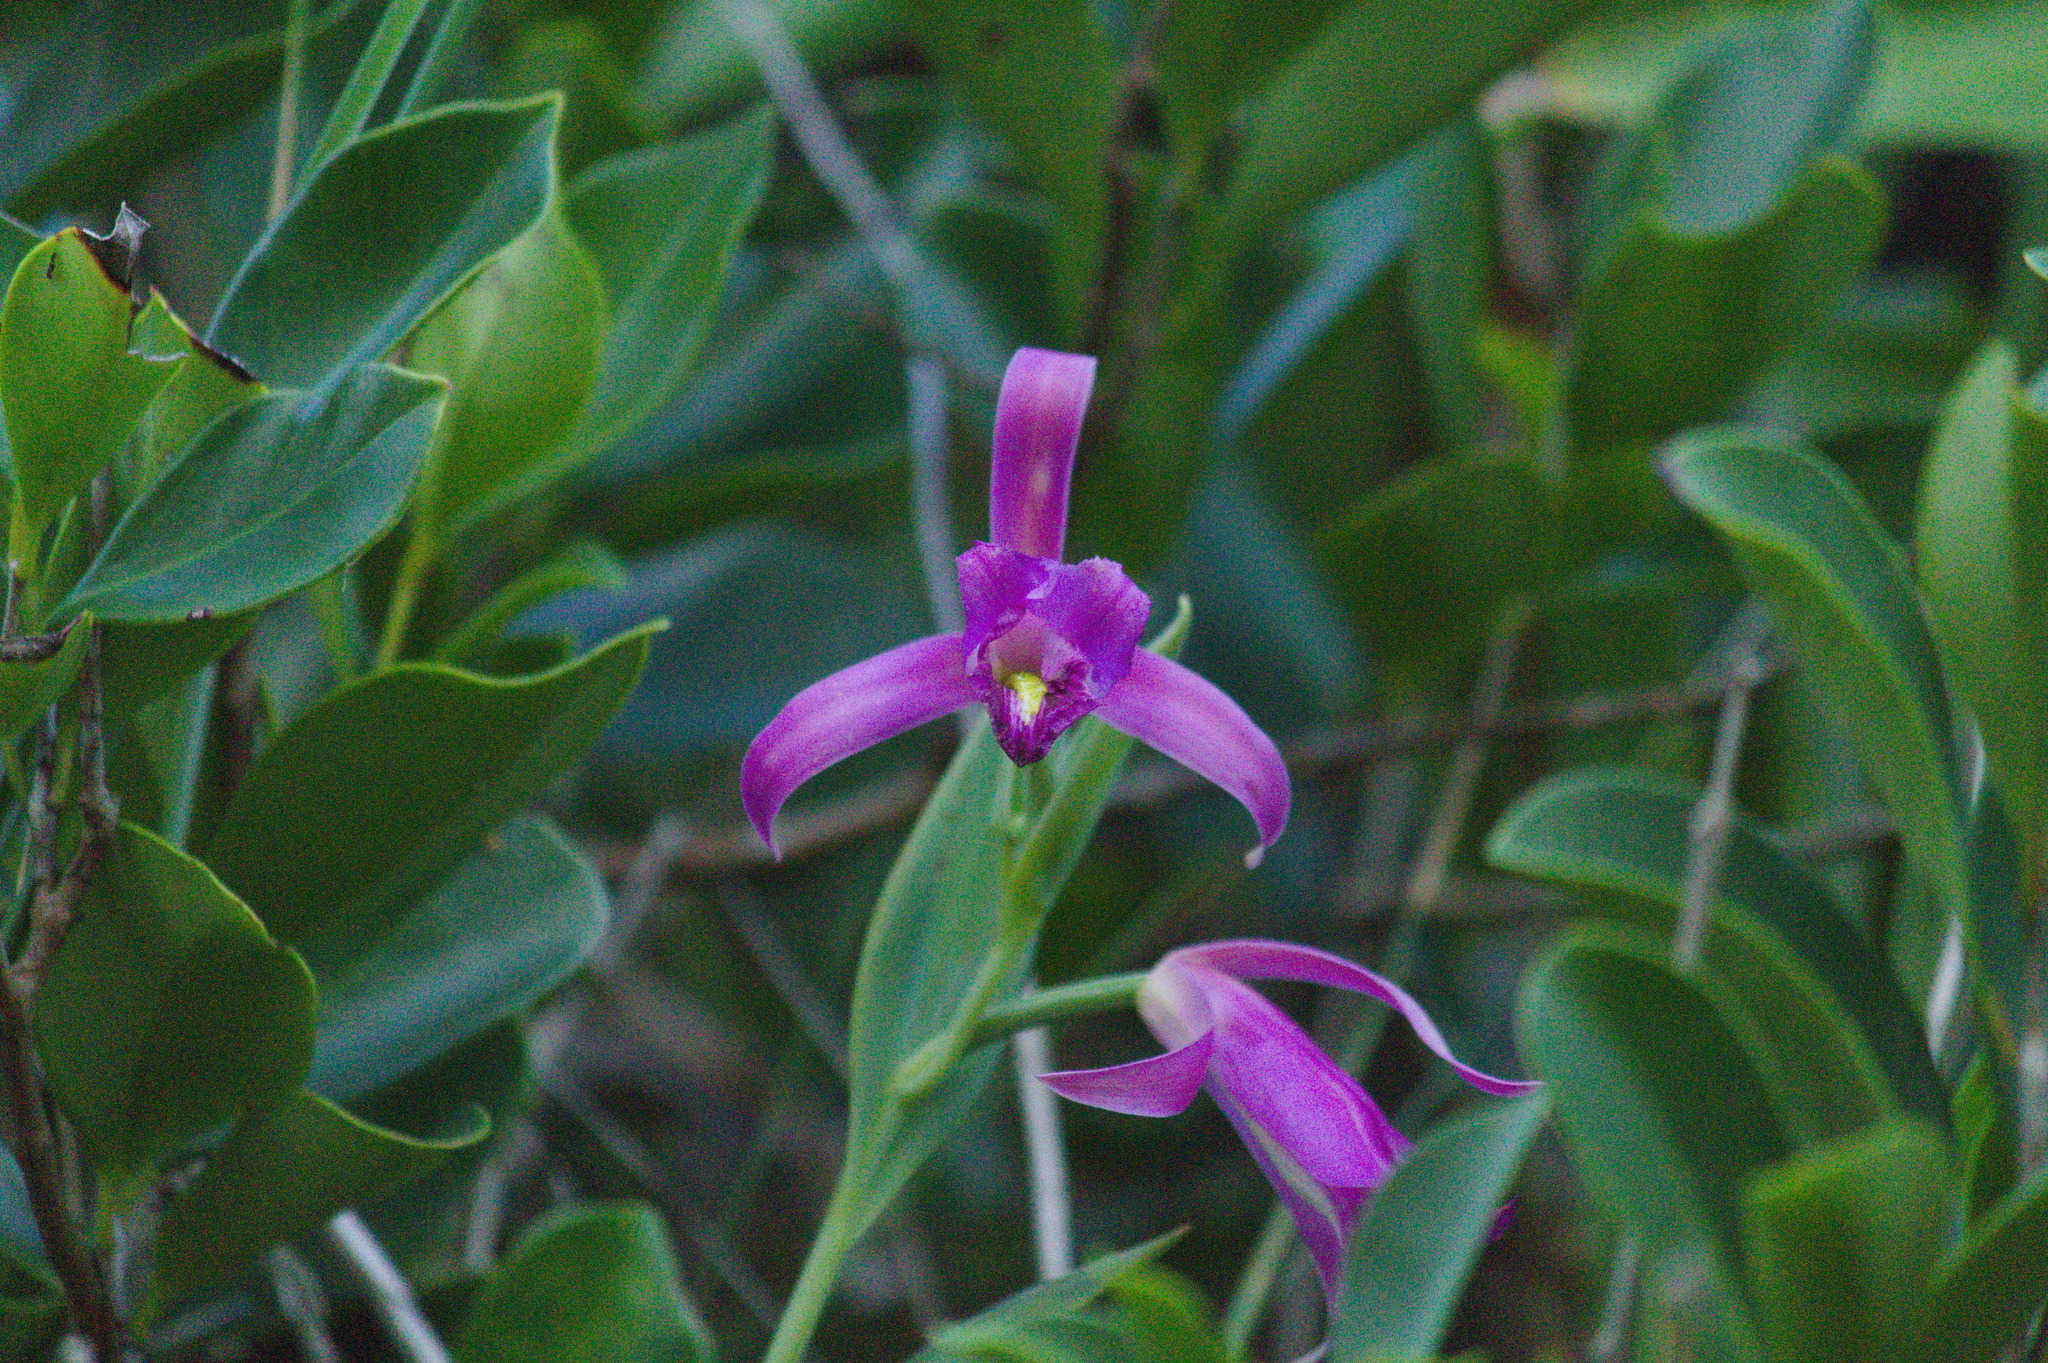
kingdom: Plantae
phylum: Tracheophyta
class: Liliopsida
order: Asparagales
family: Orchidaceae
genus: Cleistes
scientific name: Cleistes libonii
